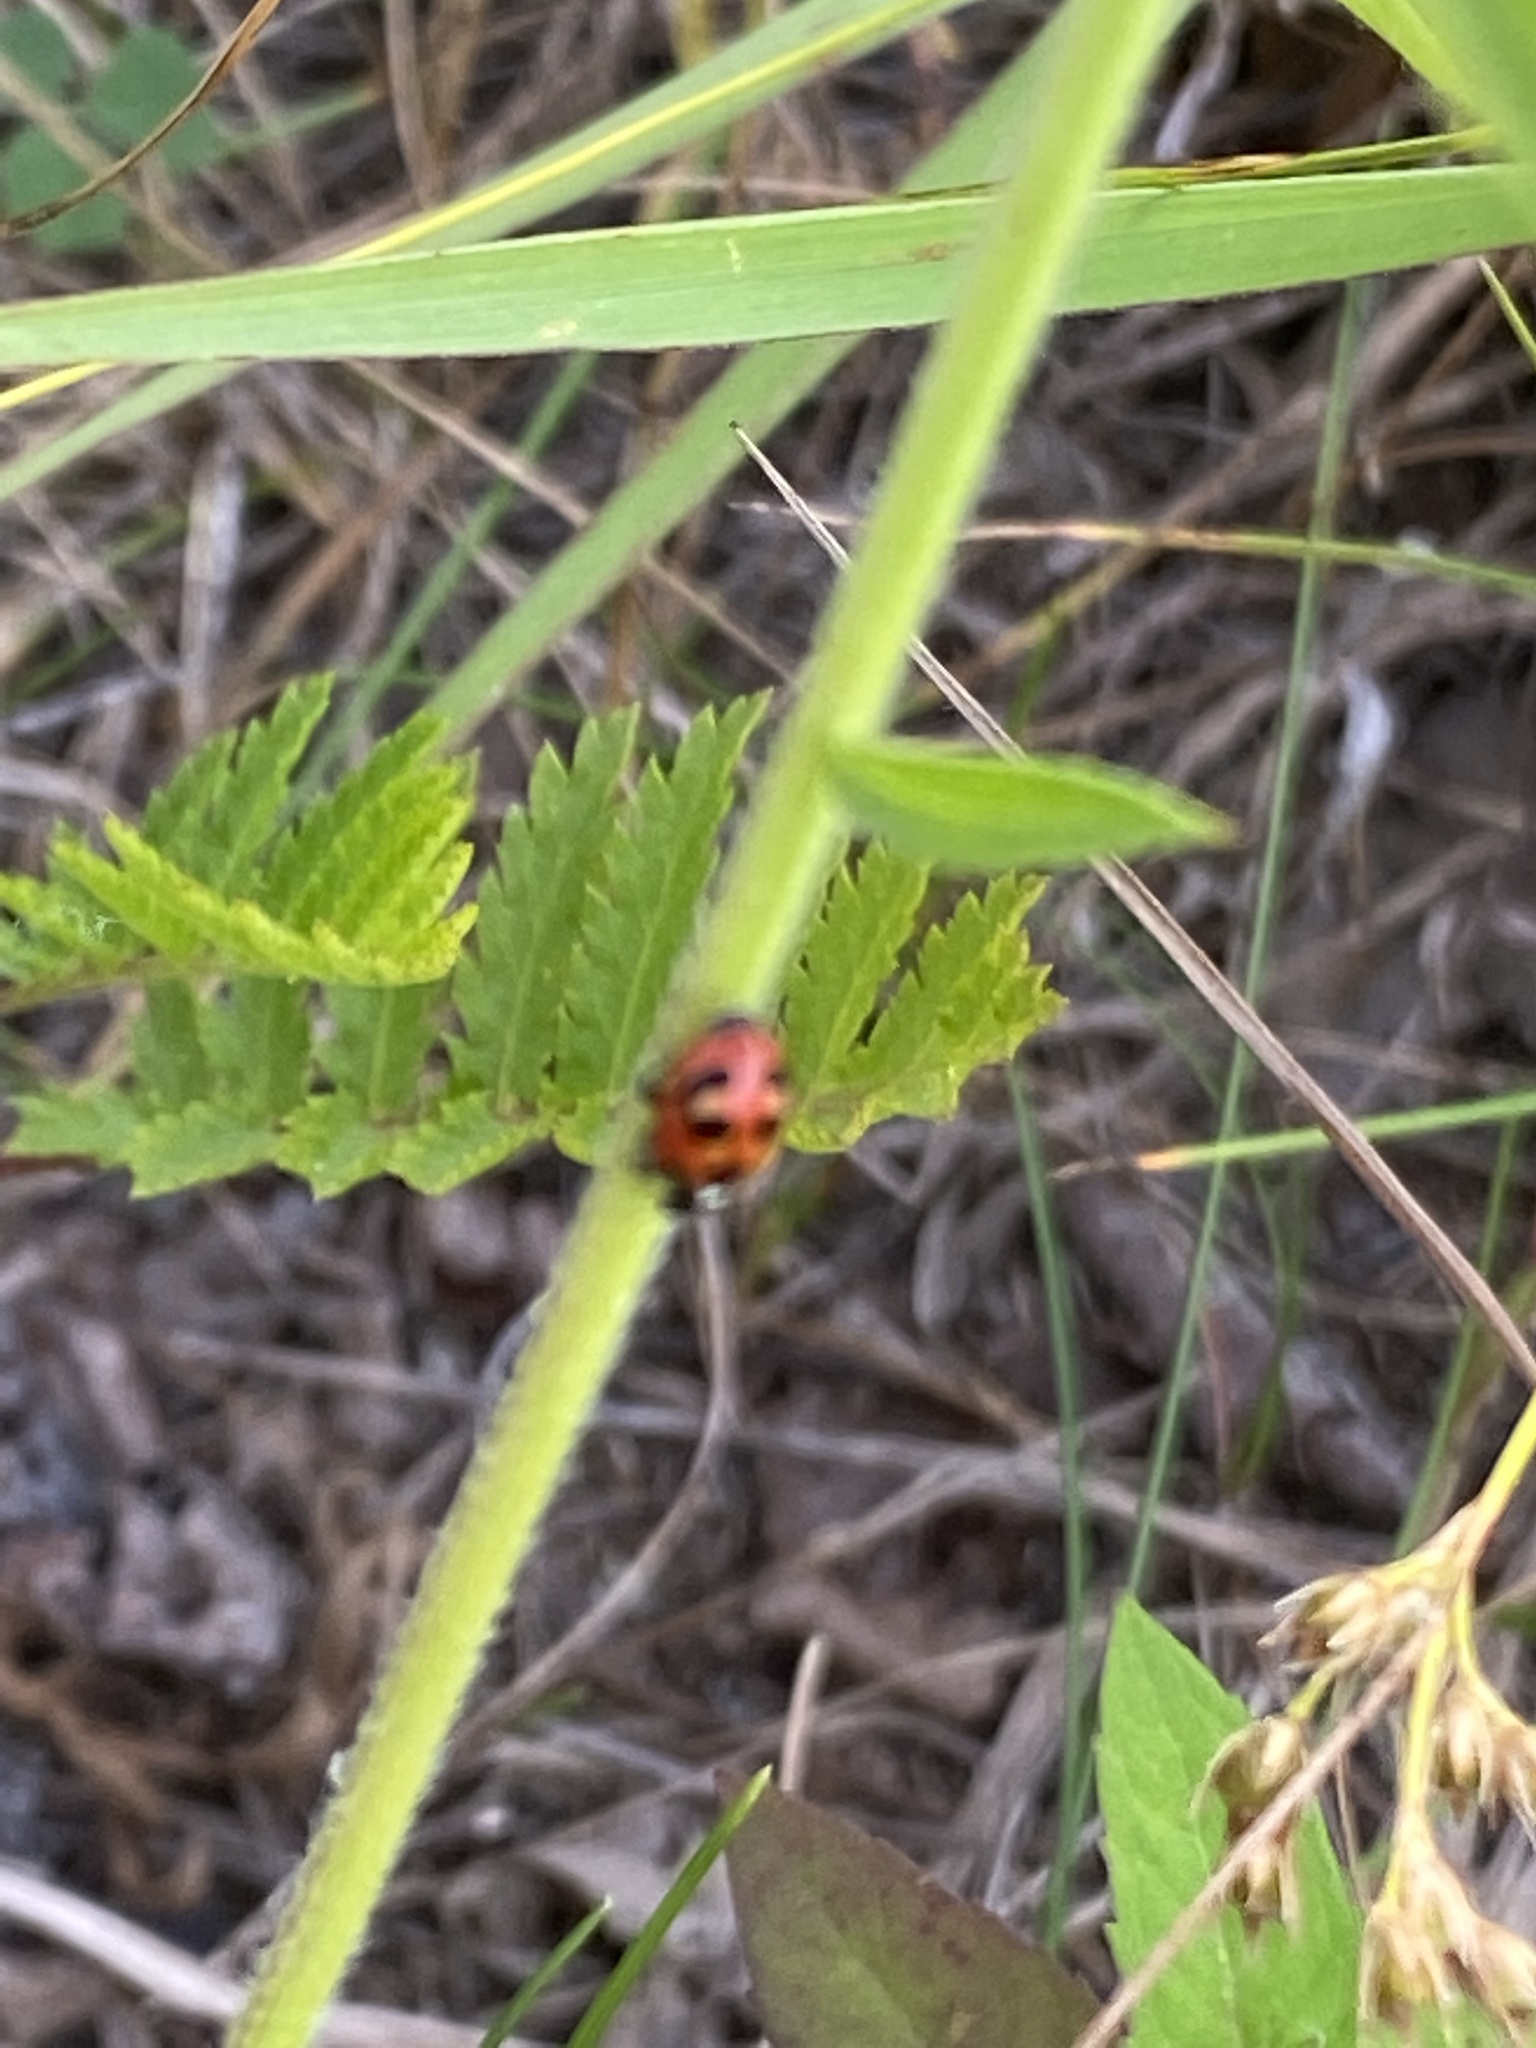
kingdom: Animalia
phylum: Arthropoda
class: Insecta
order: Coleoptera
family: Coccinellidae
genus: Hippodamia
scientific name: Hippodamia parenthesis
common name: Parenthesis lady beetle
